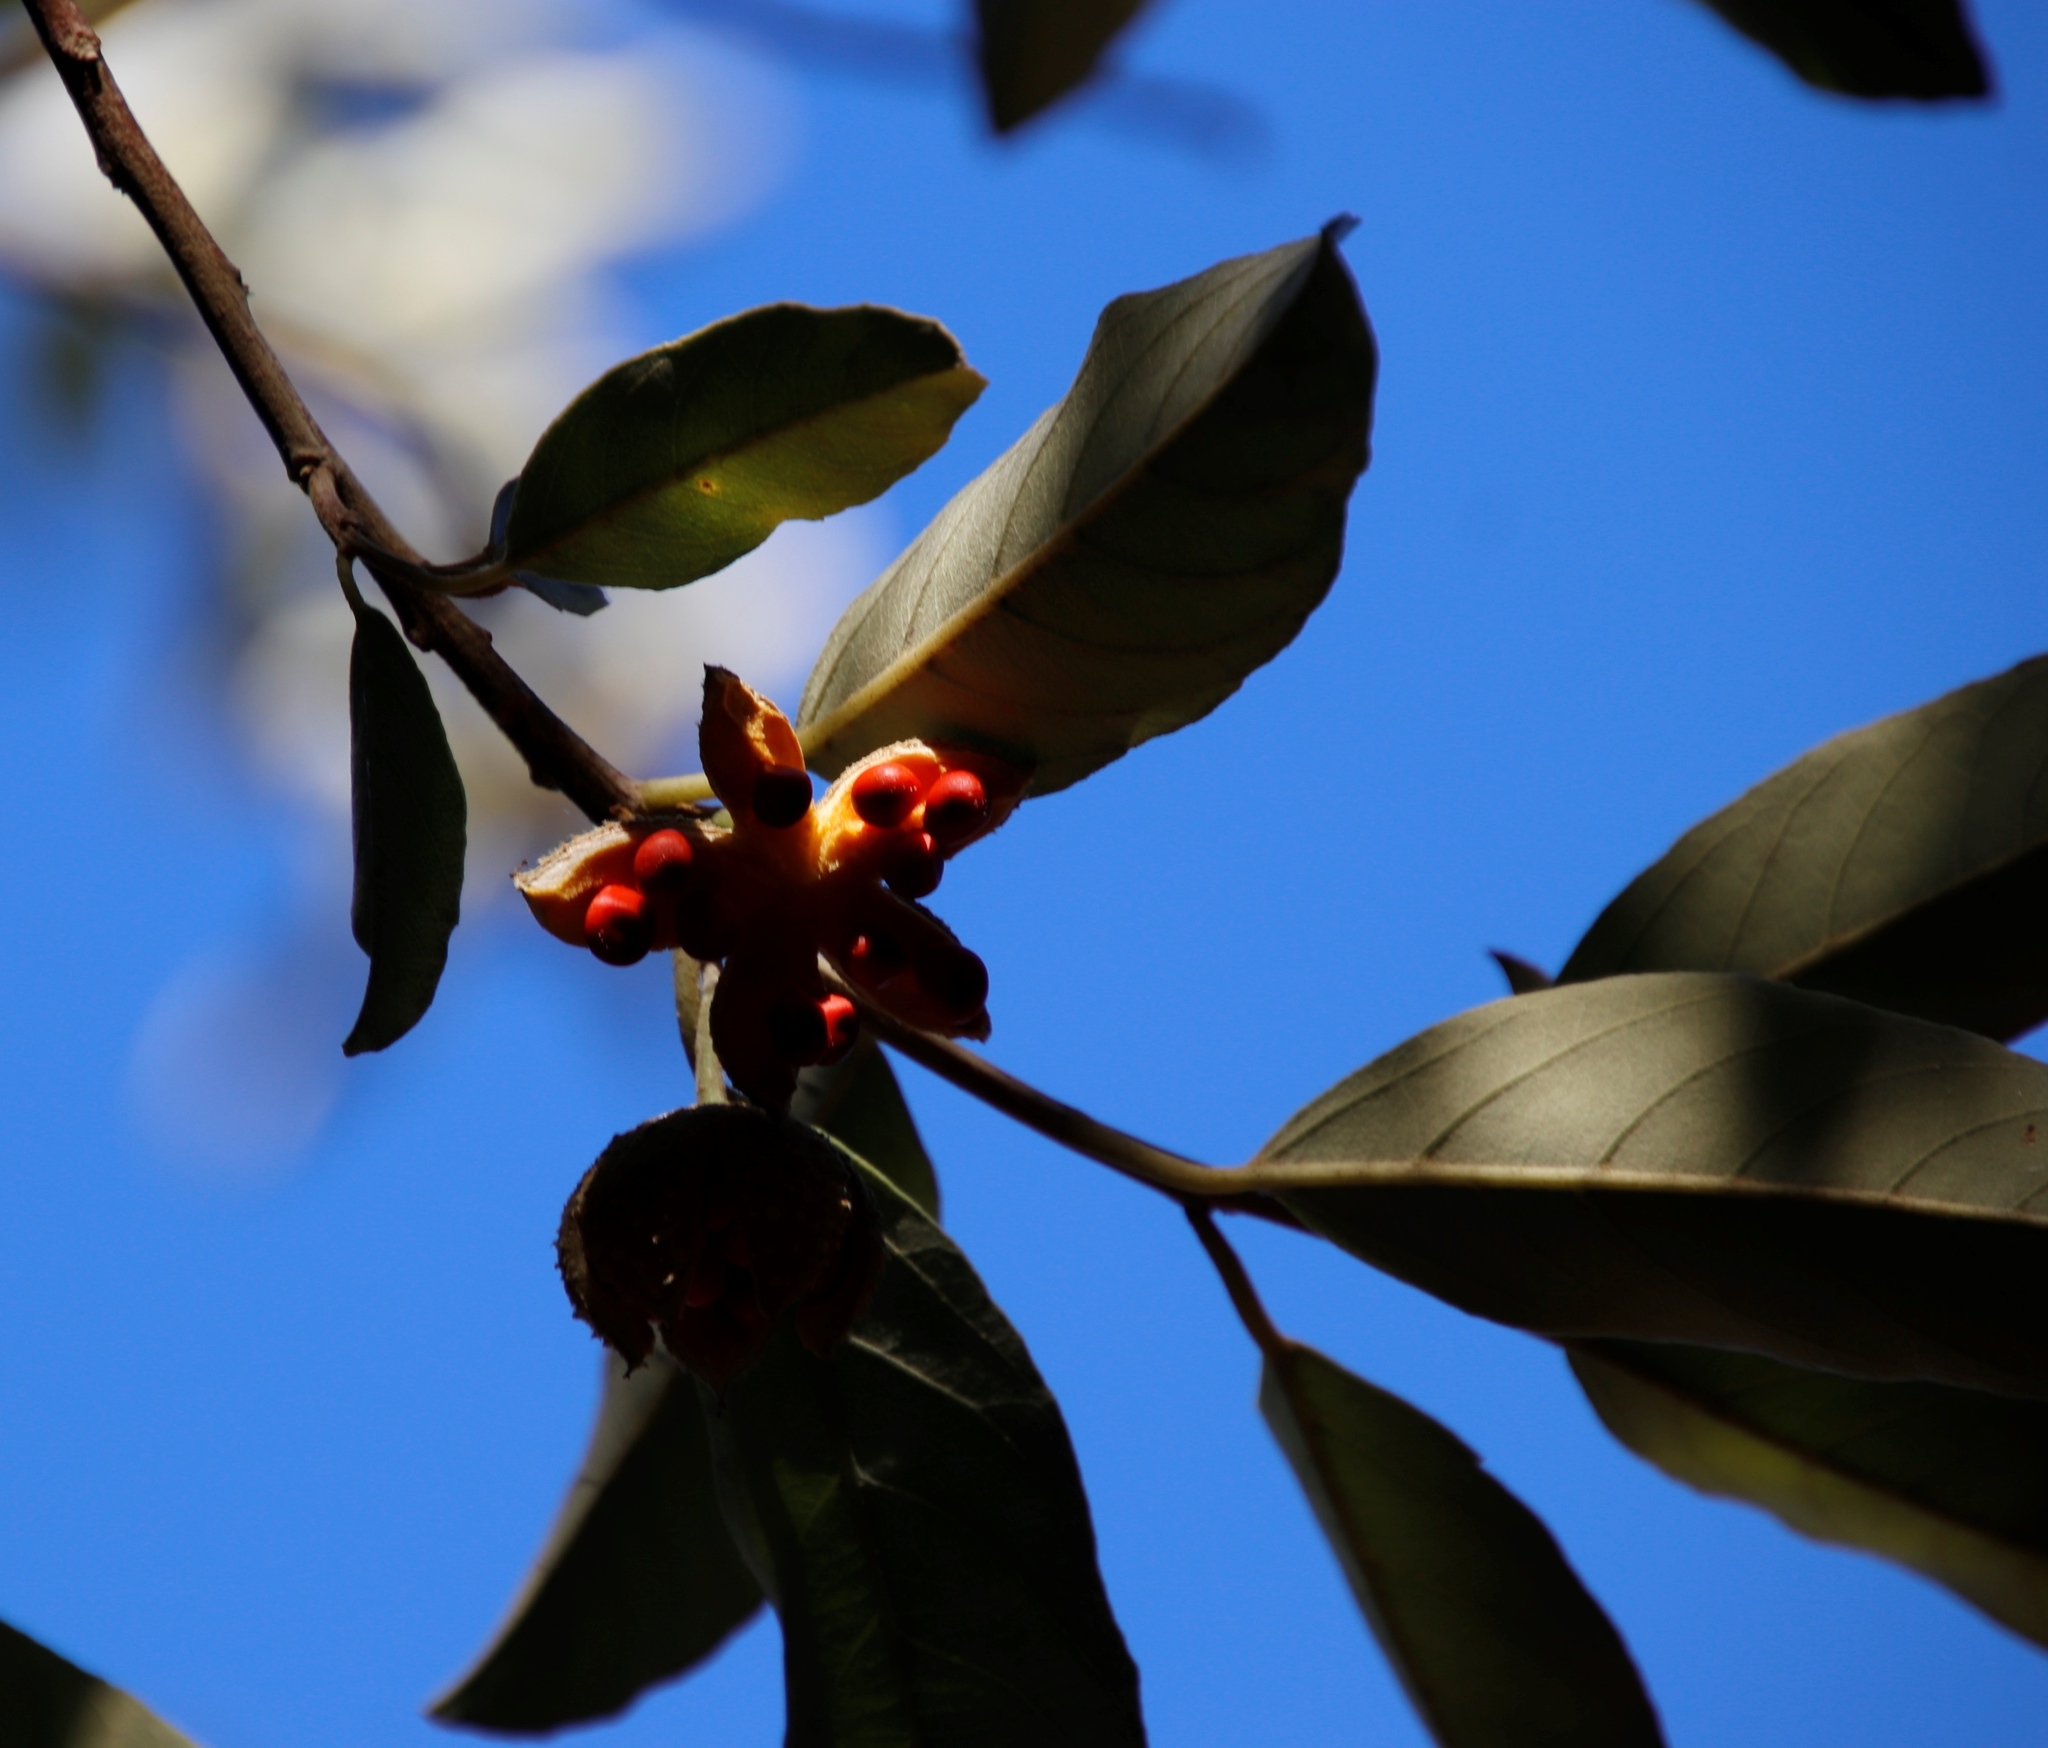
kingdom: Plantae
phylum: Tracheophyta
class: Magnoliopsida
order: Malpighiales
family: Achariaceae
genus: Kiggelaria
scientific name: Kiggelaria africana
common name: Wild peach
